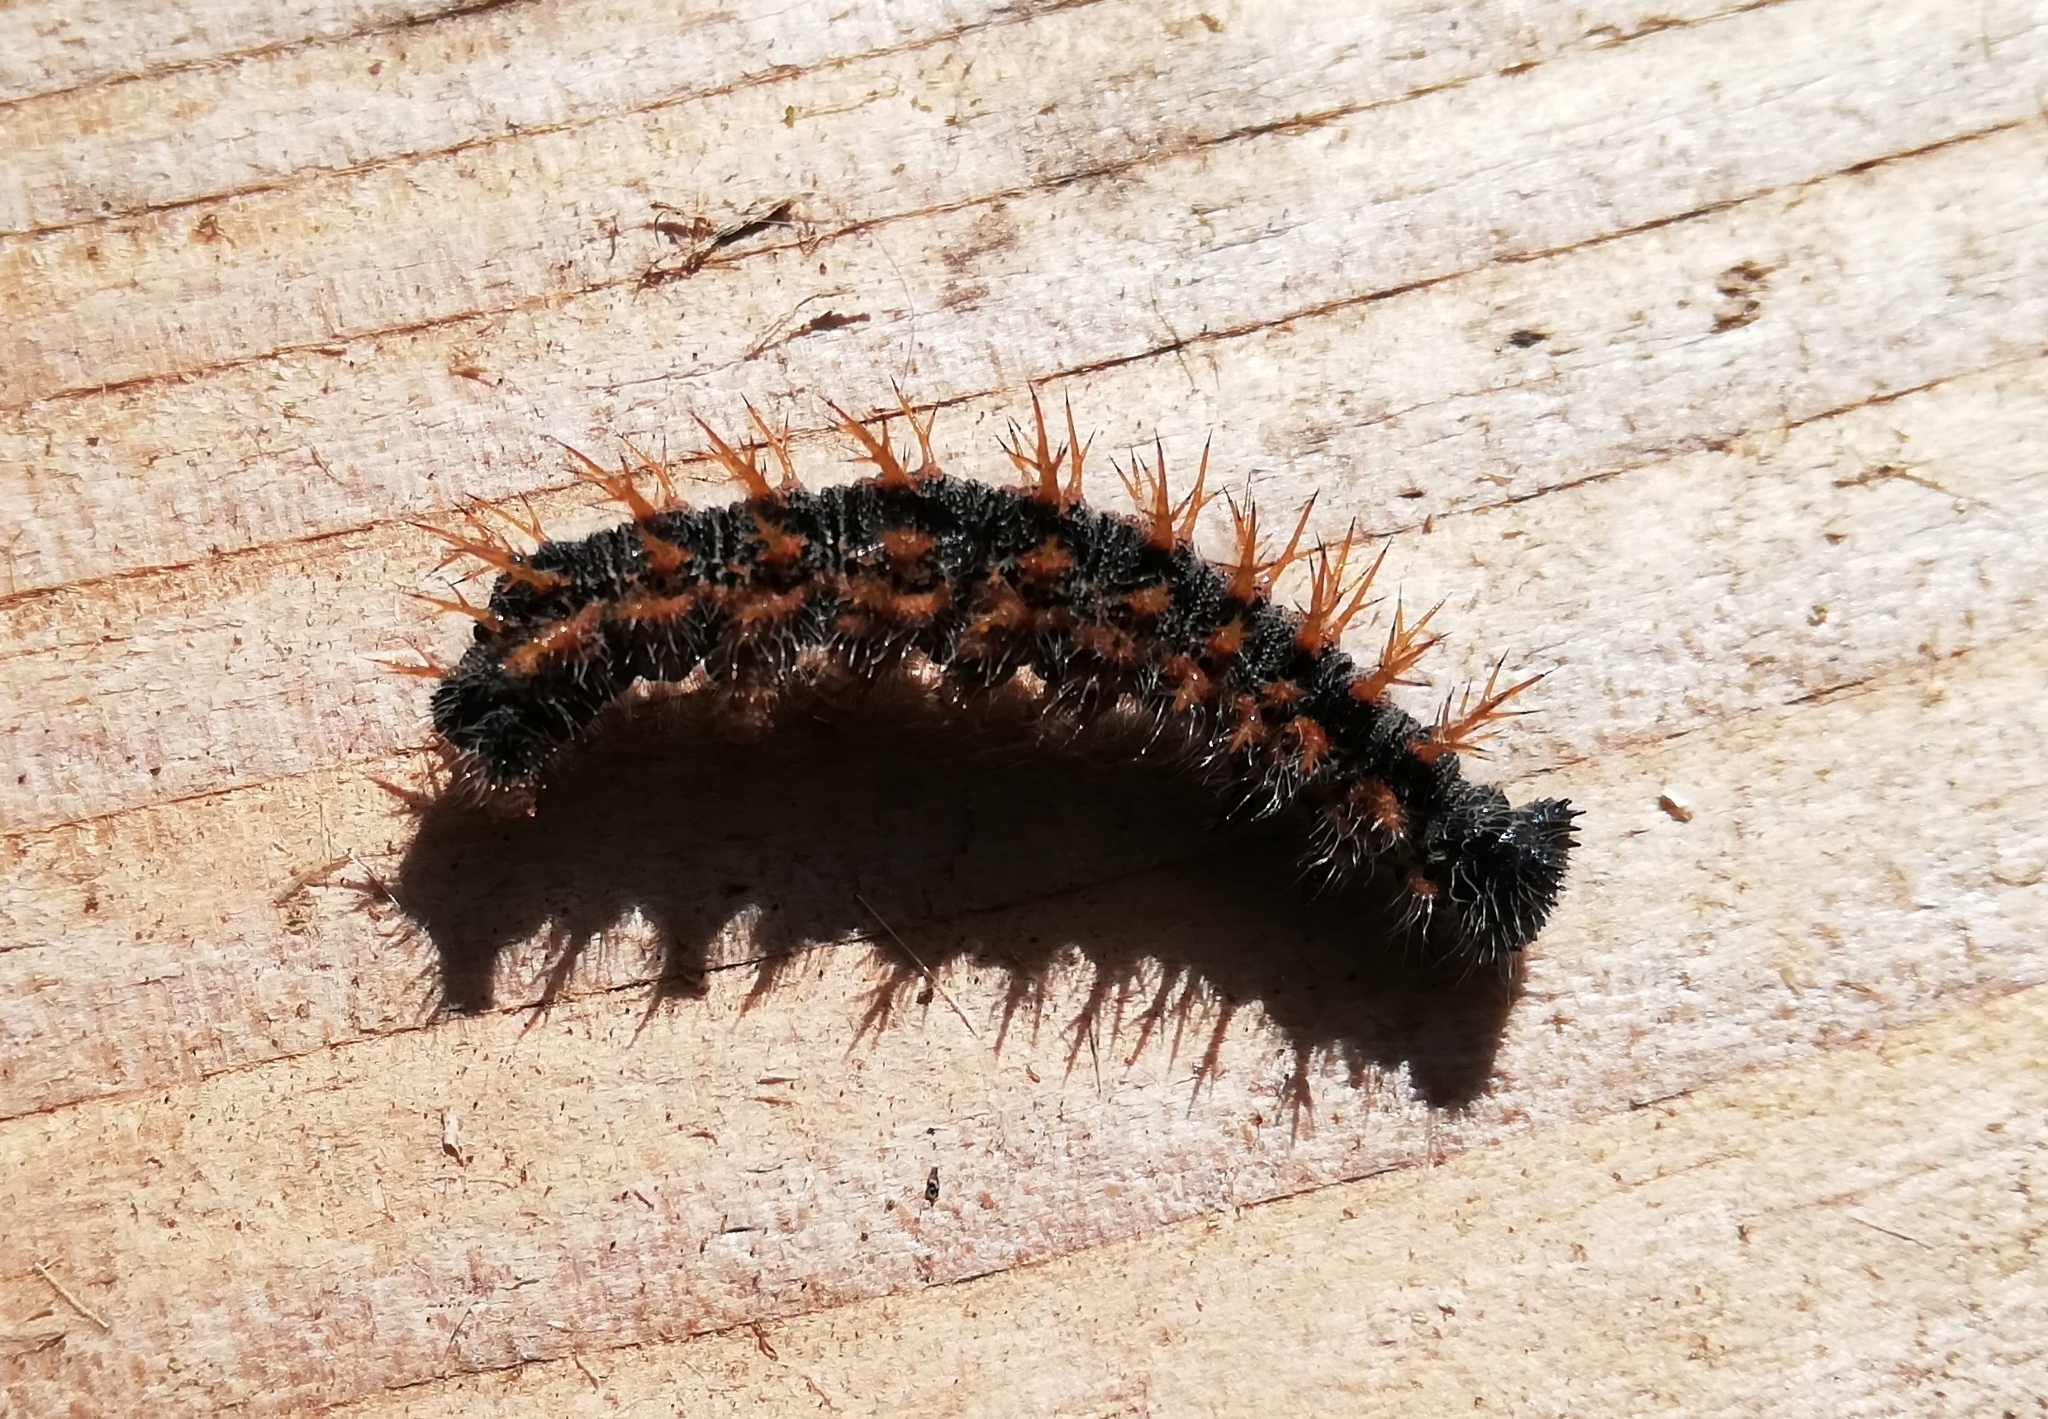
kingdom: Animalia
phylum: Arthropoda
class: Insecta
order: Lepidoptera
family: Nymphalidae
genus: Nymphalis
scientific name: Nymphalis polychloros
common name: Large tortoiseshell
